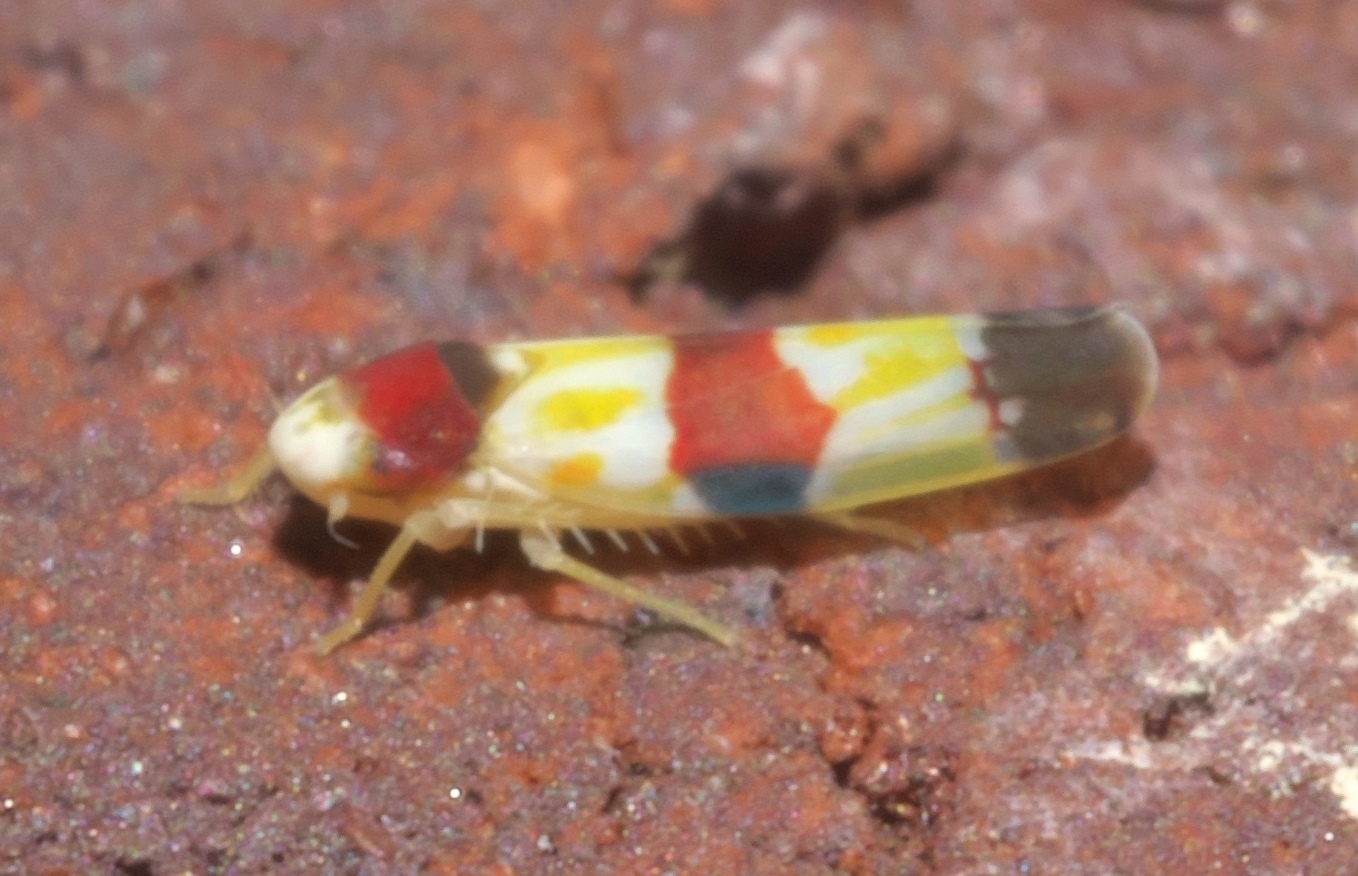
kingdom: Animalia
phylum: Arthropoda
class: Insecta
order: Hemiptera
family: Cicadellidae
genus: Erythroneura
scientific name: Erythroneura diva
